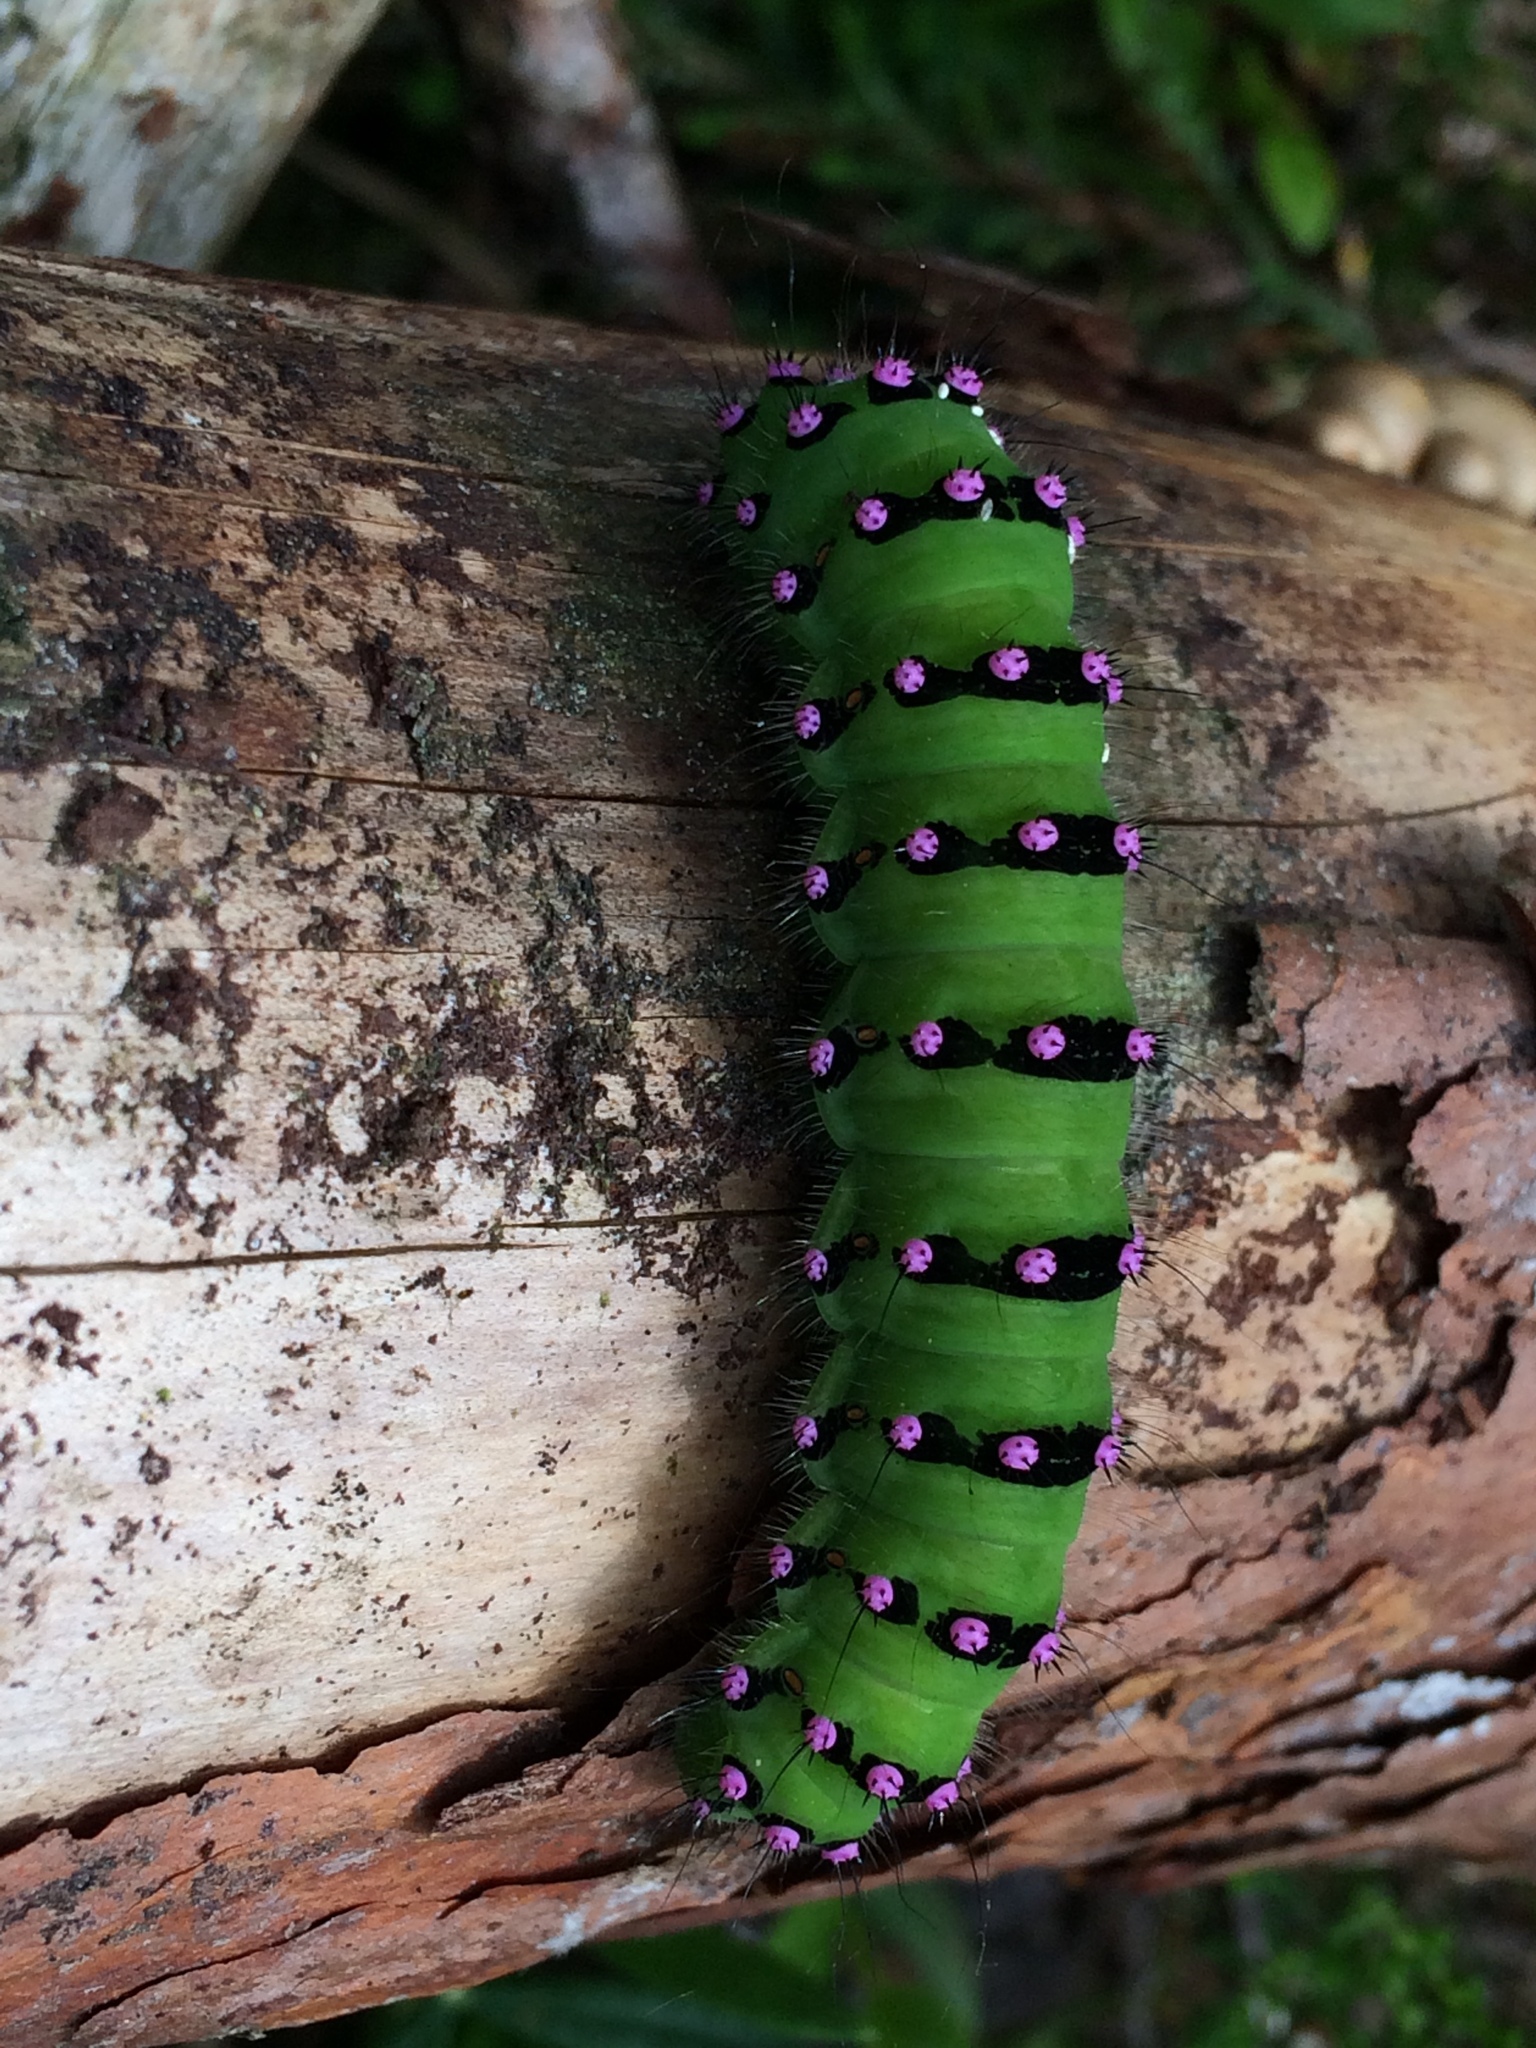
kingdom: Animalia
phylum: Arthropoda
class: Insecta
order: Lepidoptera
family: Saturniidae
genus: Saturnia
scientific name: Saturnia pavonia
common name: Emperor moth
